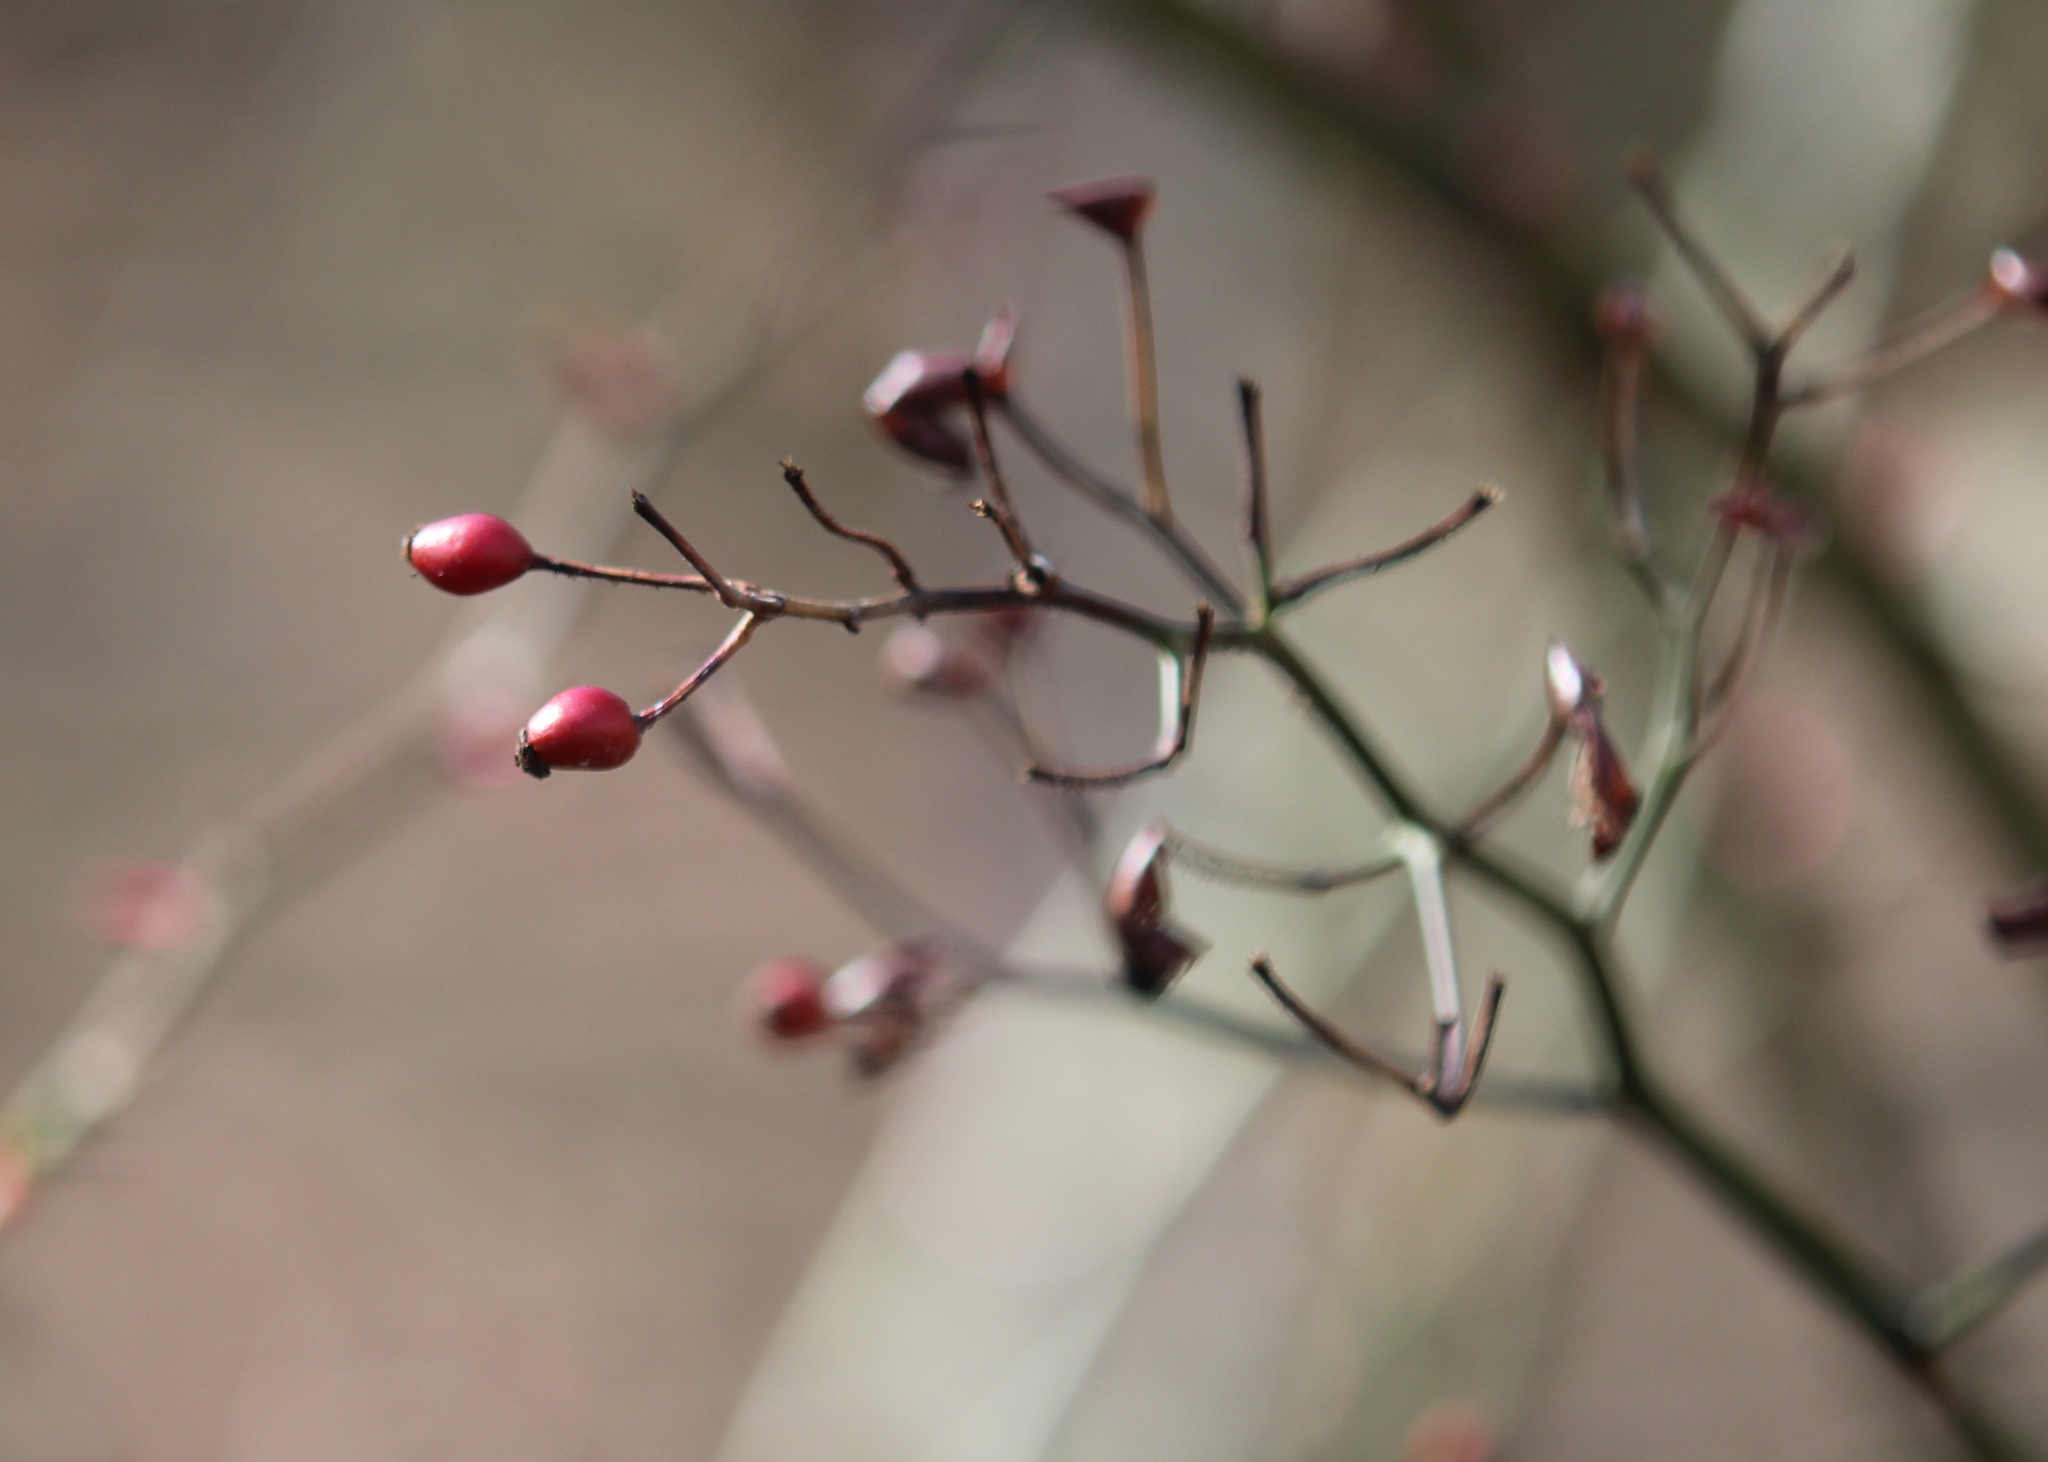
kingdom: Plantae
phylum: Tracheophyta
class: Magnoliopsida
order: Rosales
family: Rosaceae
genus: Rosa
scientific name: Rosa multiflora
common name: Multiflora rose
